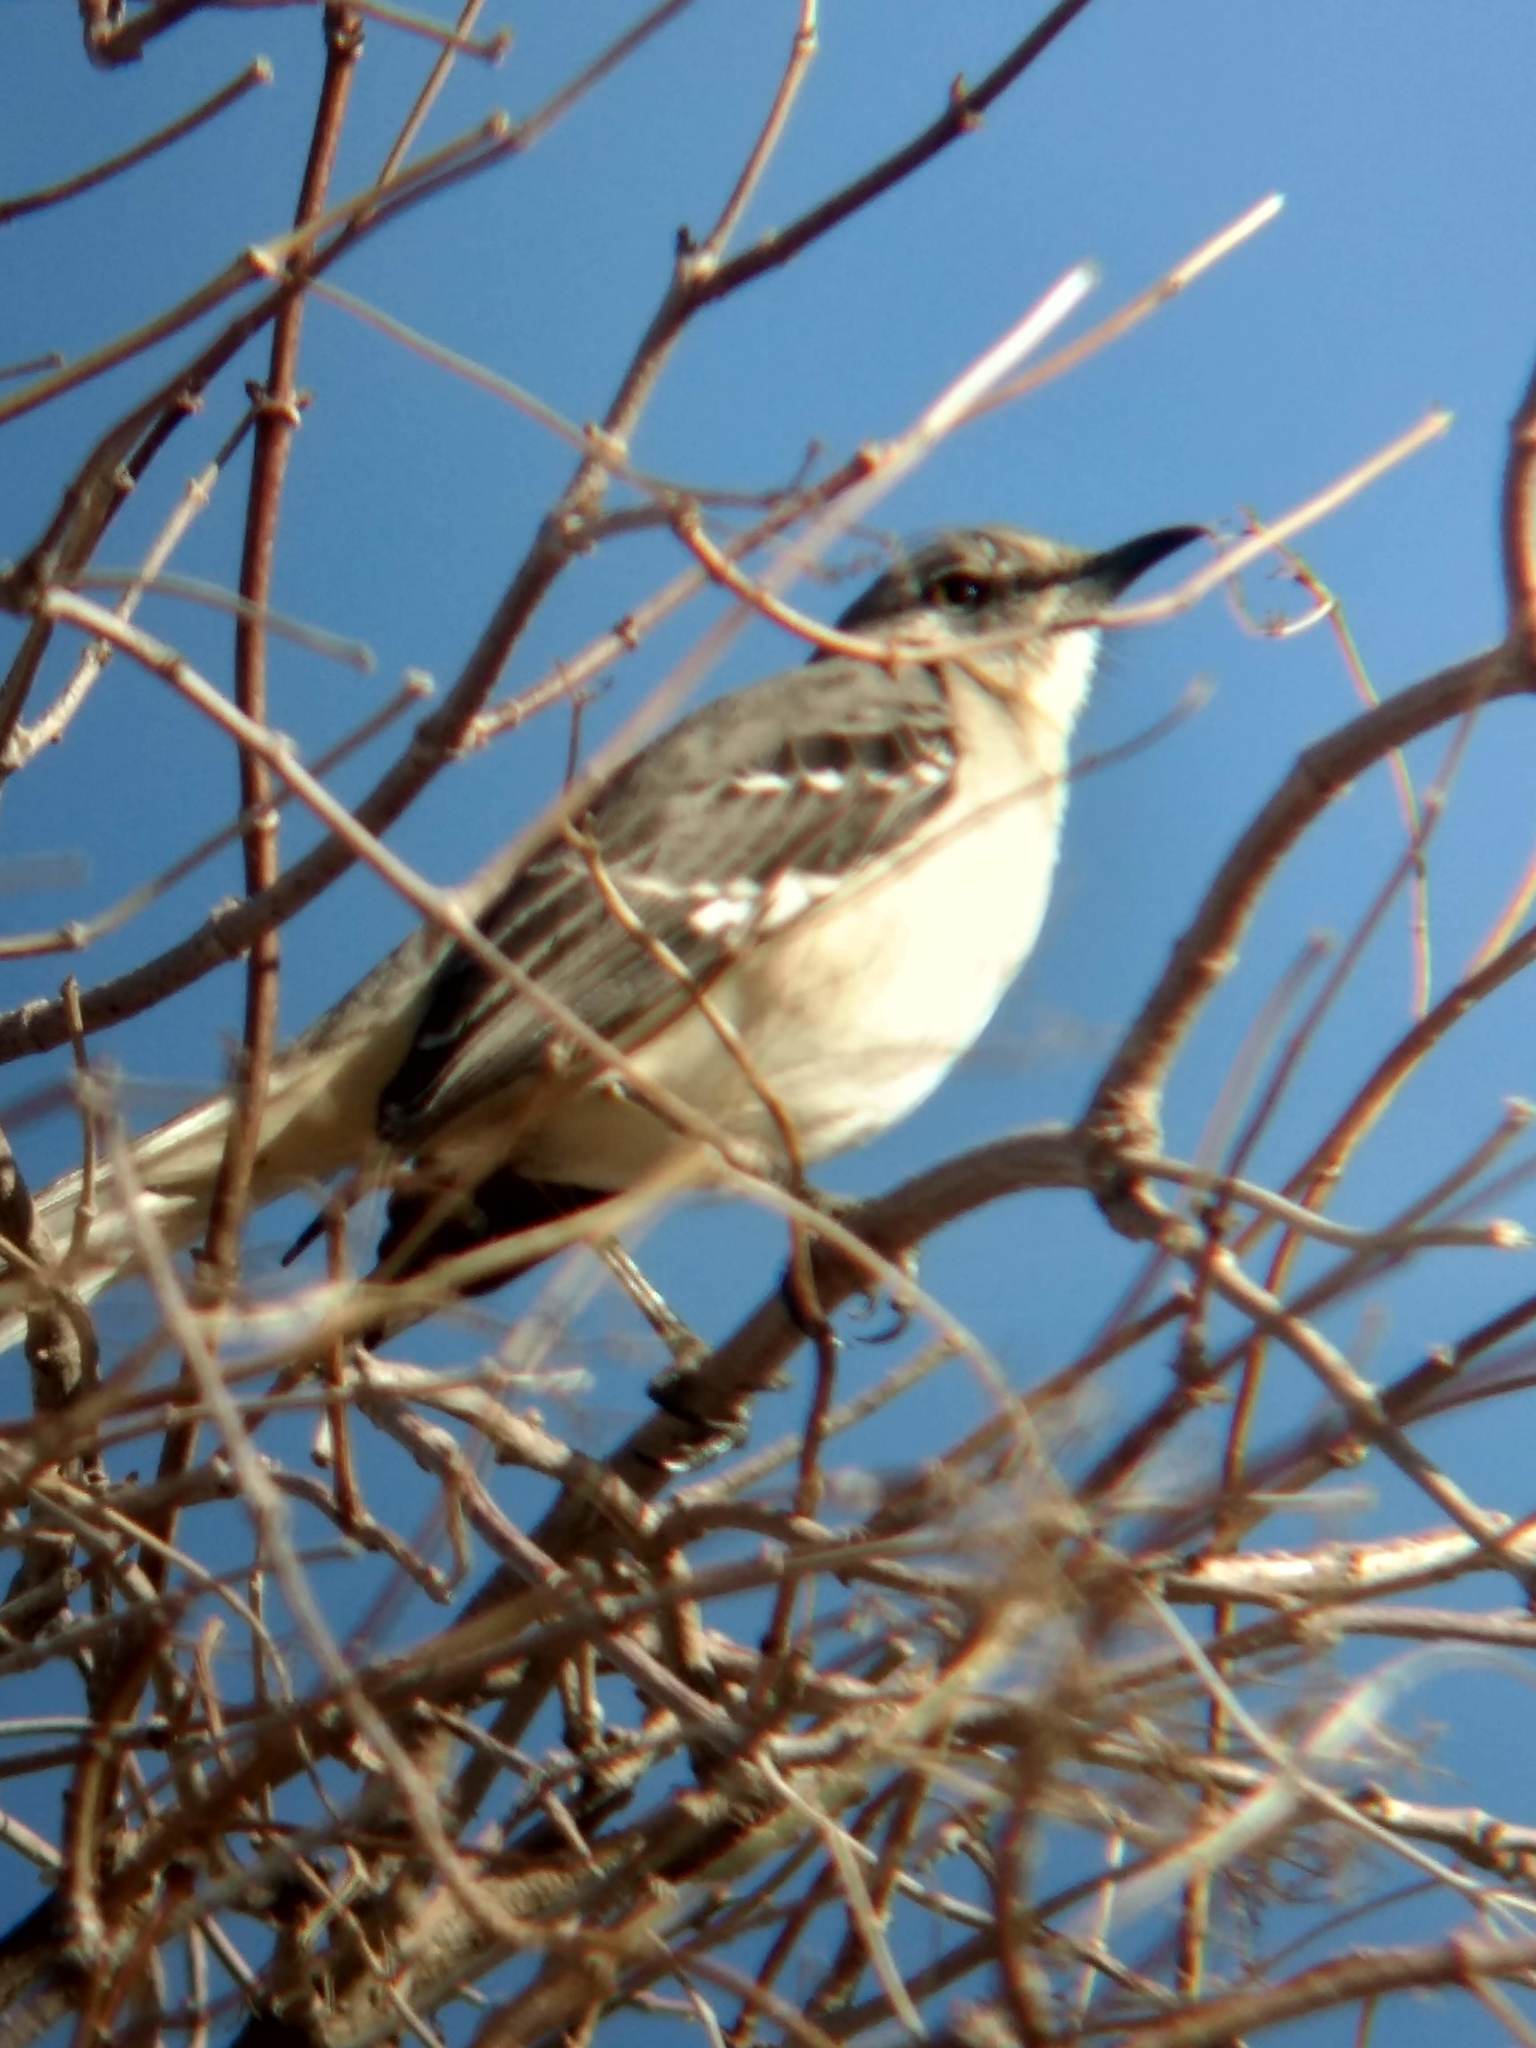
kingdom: Animalia
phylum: Chordata
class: Aves
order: Passeriformes
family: Mimidae
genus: Mimus
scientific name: Mimus polyglottos
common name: Northern mockingbird
